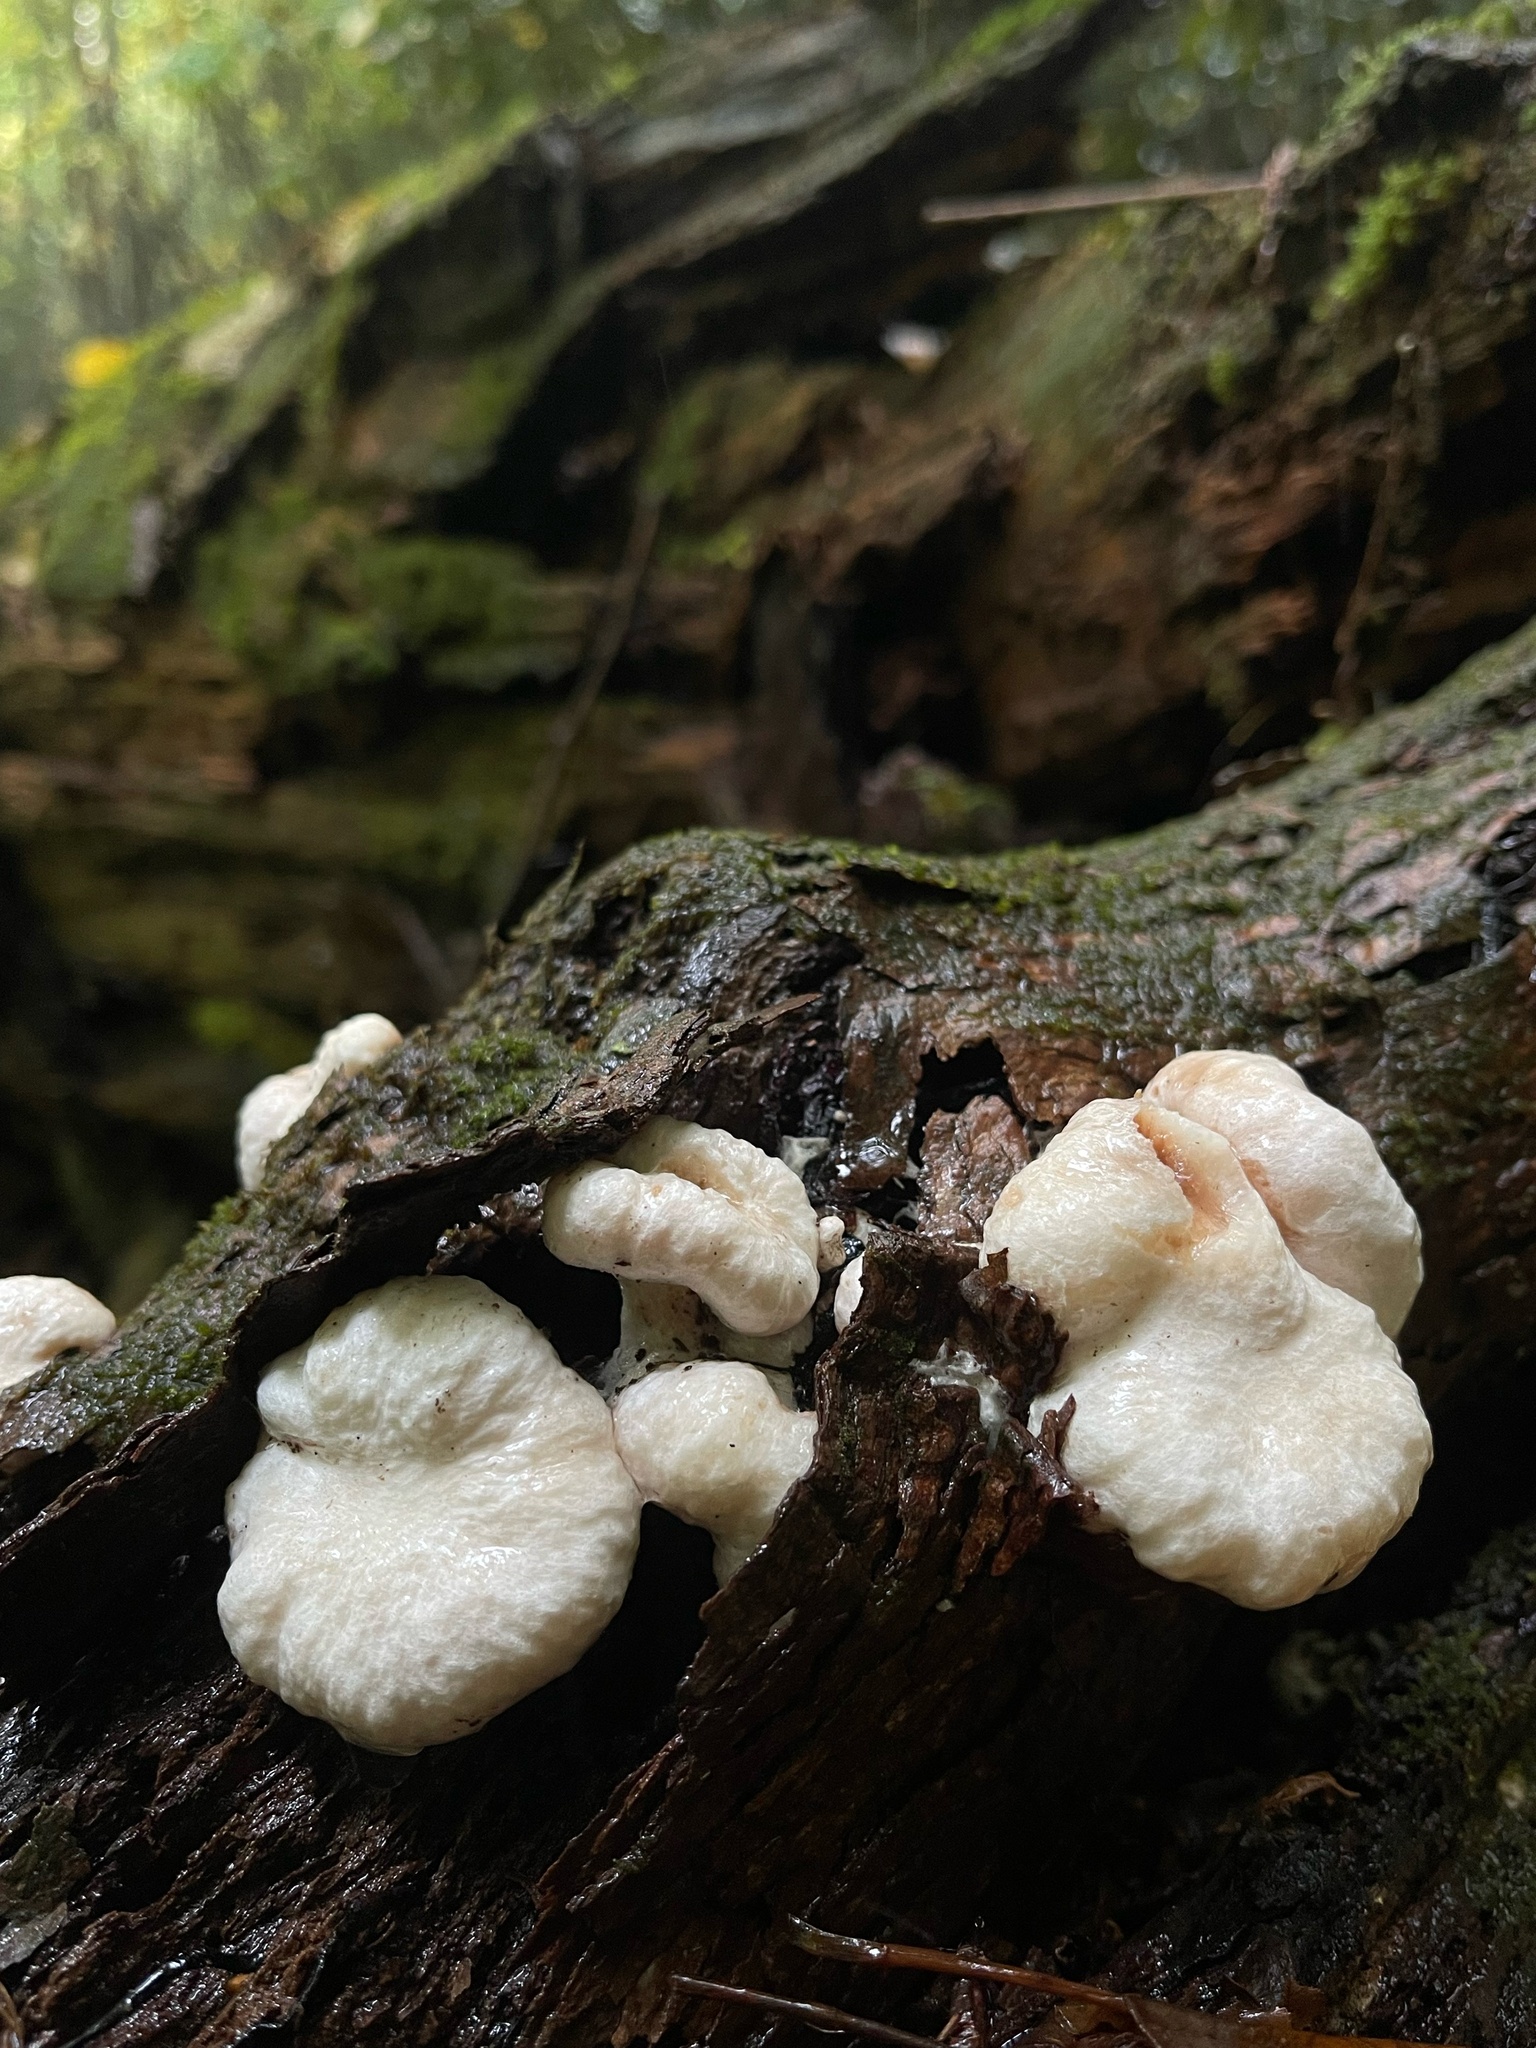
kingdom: Fungi
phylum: Basidiomycota
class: Agaricomycetes
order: Agaricales
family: Entolomataceae
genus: Entoloma
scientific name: Entoloma abortivum
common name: Aborted entoloma
